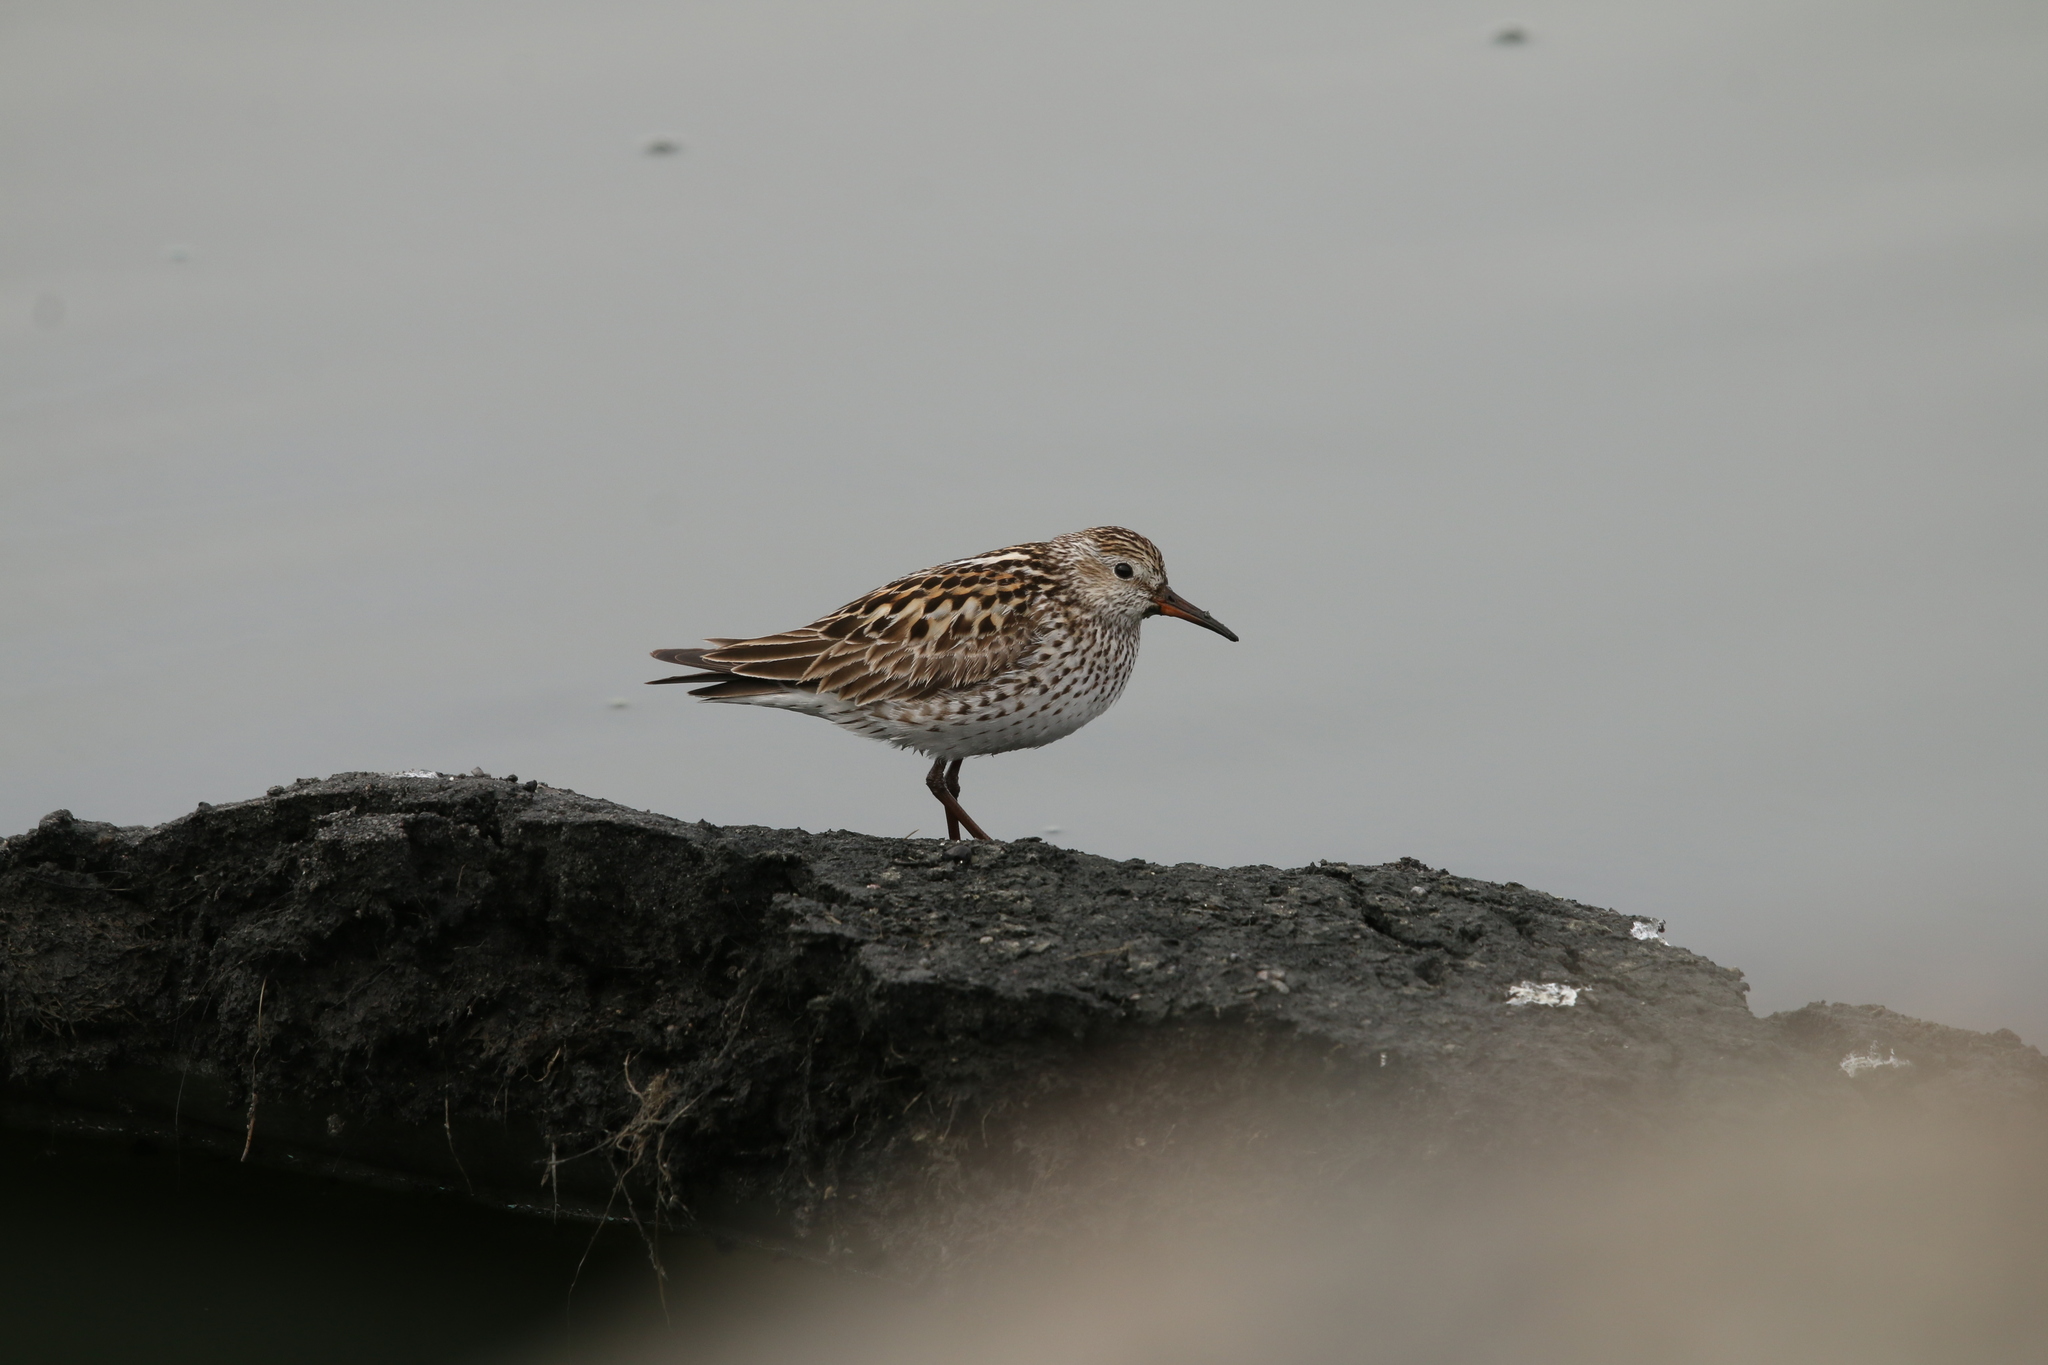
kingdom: Animalia
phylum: Chordata
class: Aves
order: Charadriiformes
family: Scolopacidae
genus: Calidris
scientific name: Calidris fuscicollis
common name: White-rumped sandpiper
